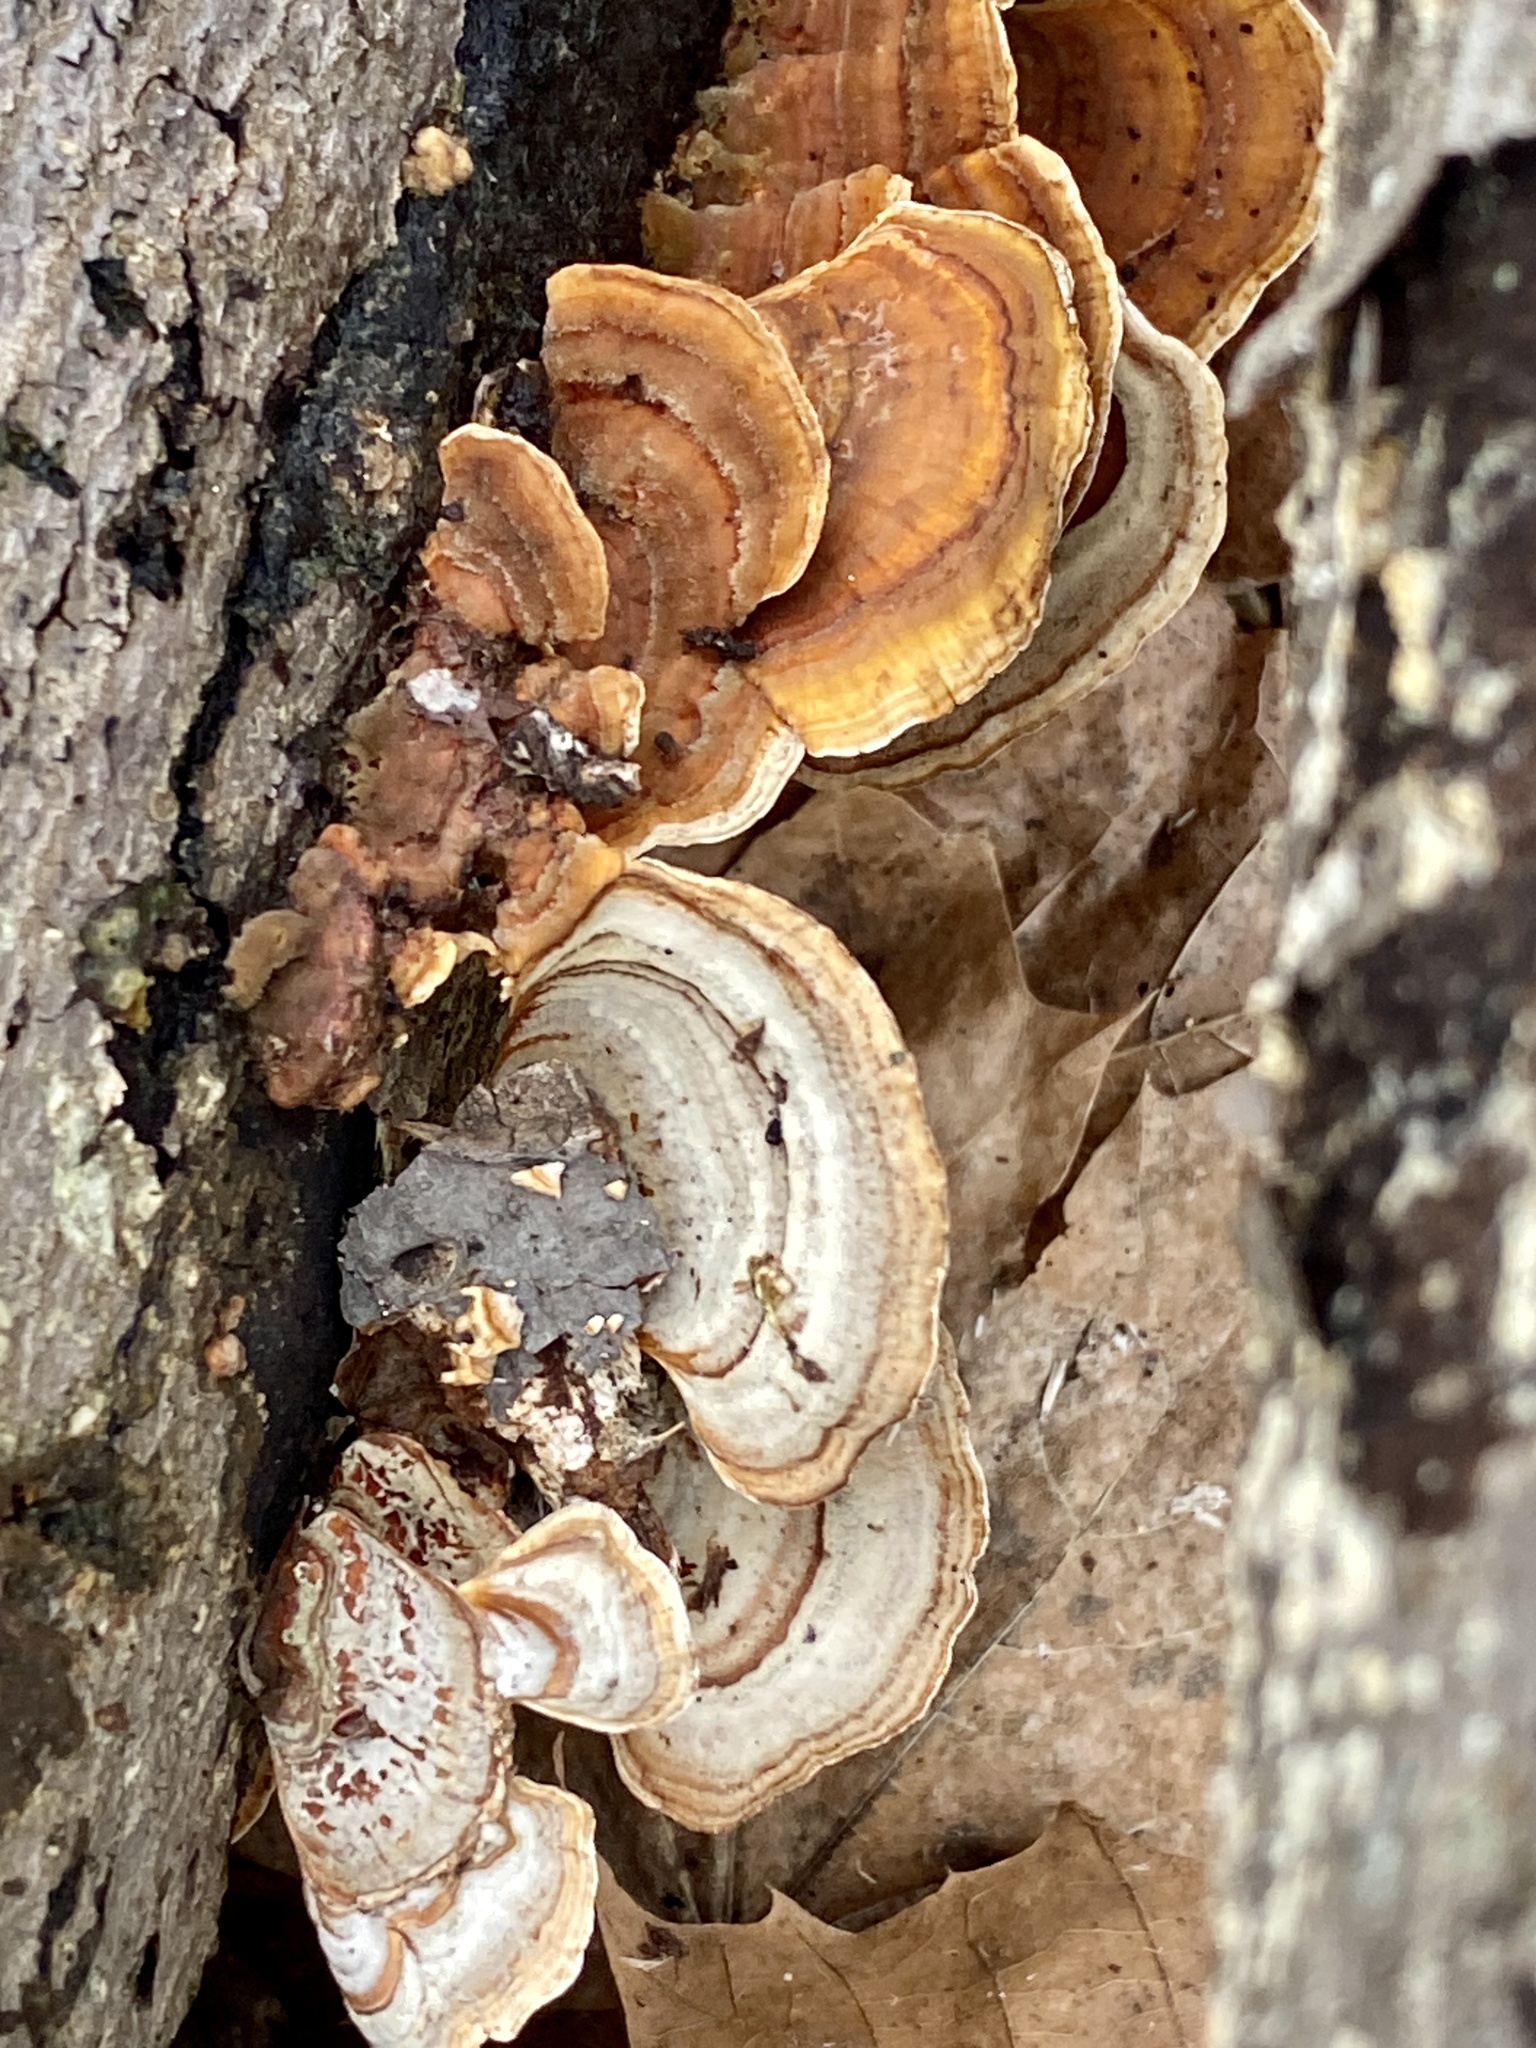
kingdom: Fungi
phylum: Basidiomycota
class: Agaricomycetes
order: Russulales
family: Stereaceae
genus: Stereum
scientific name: Stereum lobatum
